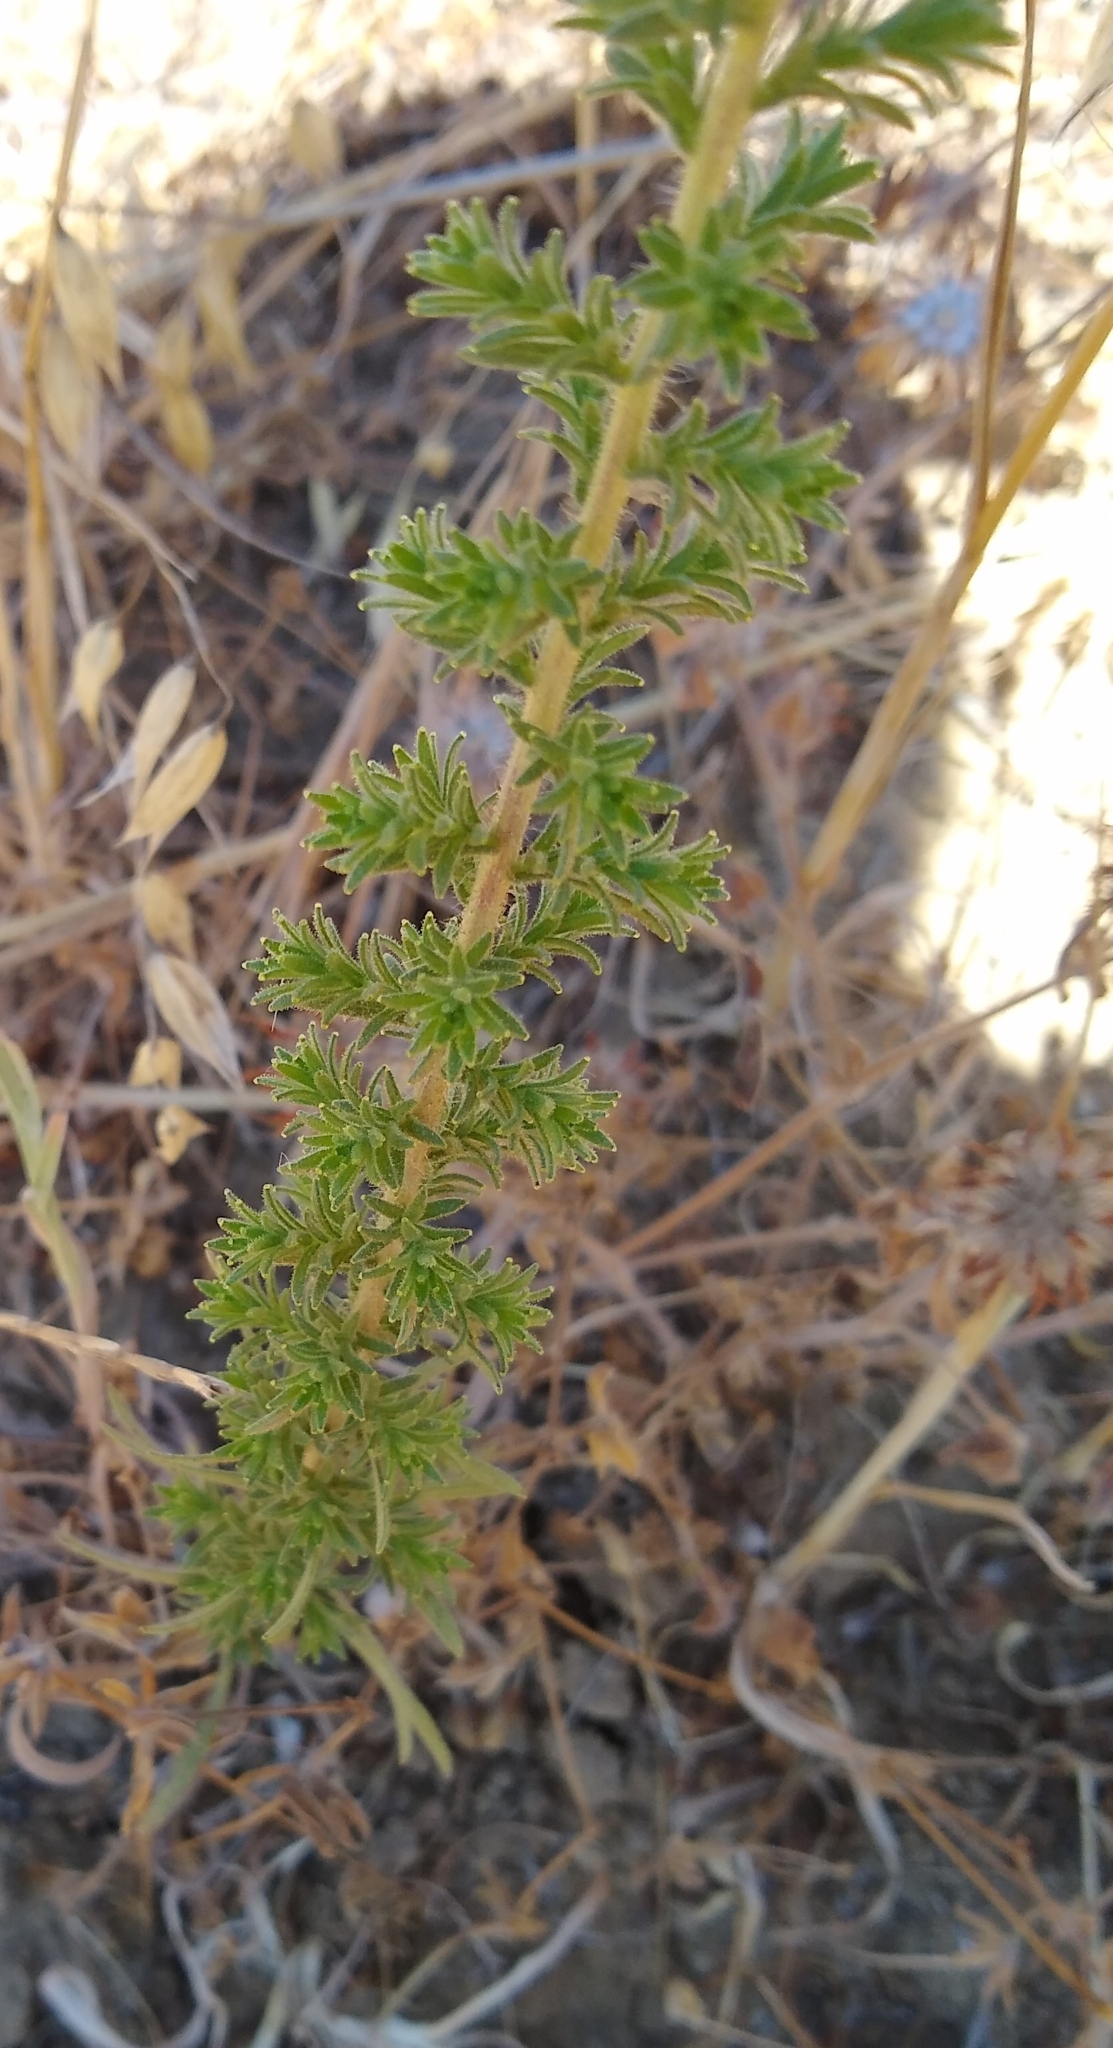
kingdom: Plantae
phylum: Tracheophyta
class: Magnoliopsida
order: Asterales
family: Asteraceae
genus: Holocarpha
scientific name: Holocarpha heermannii
